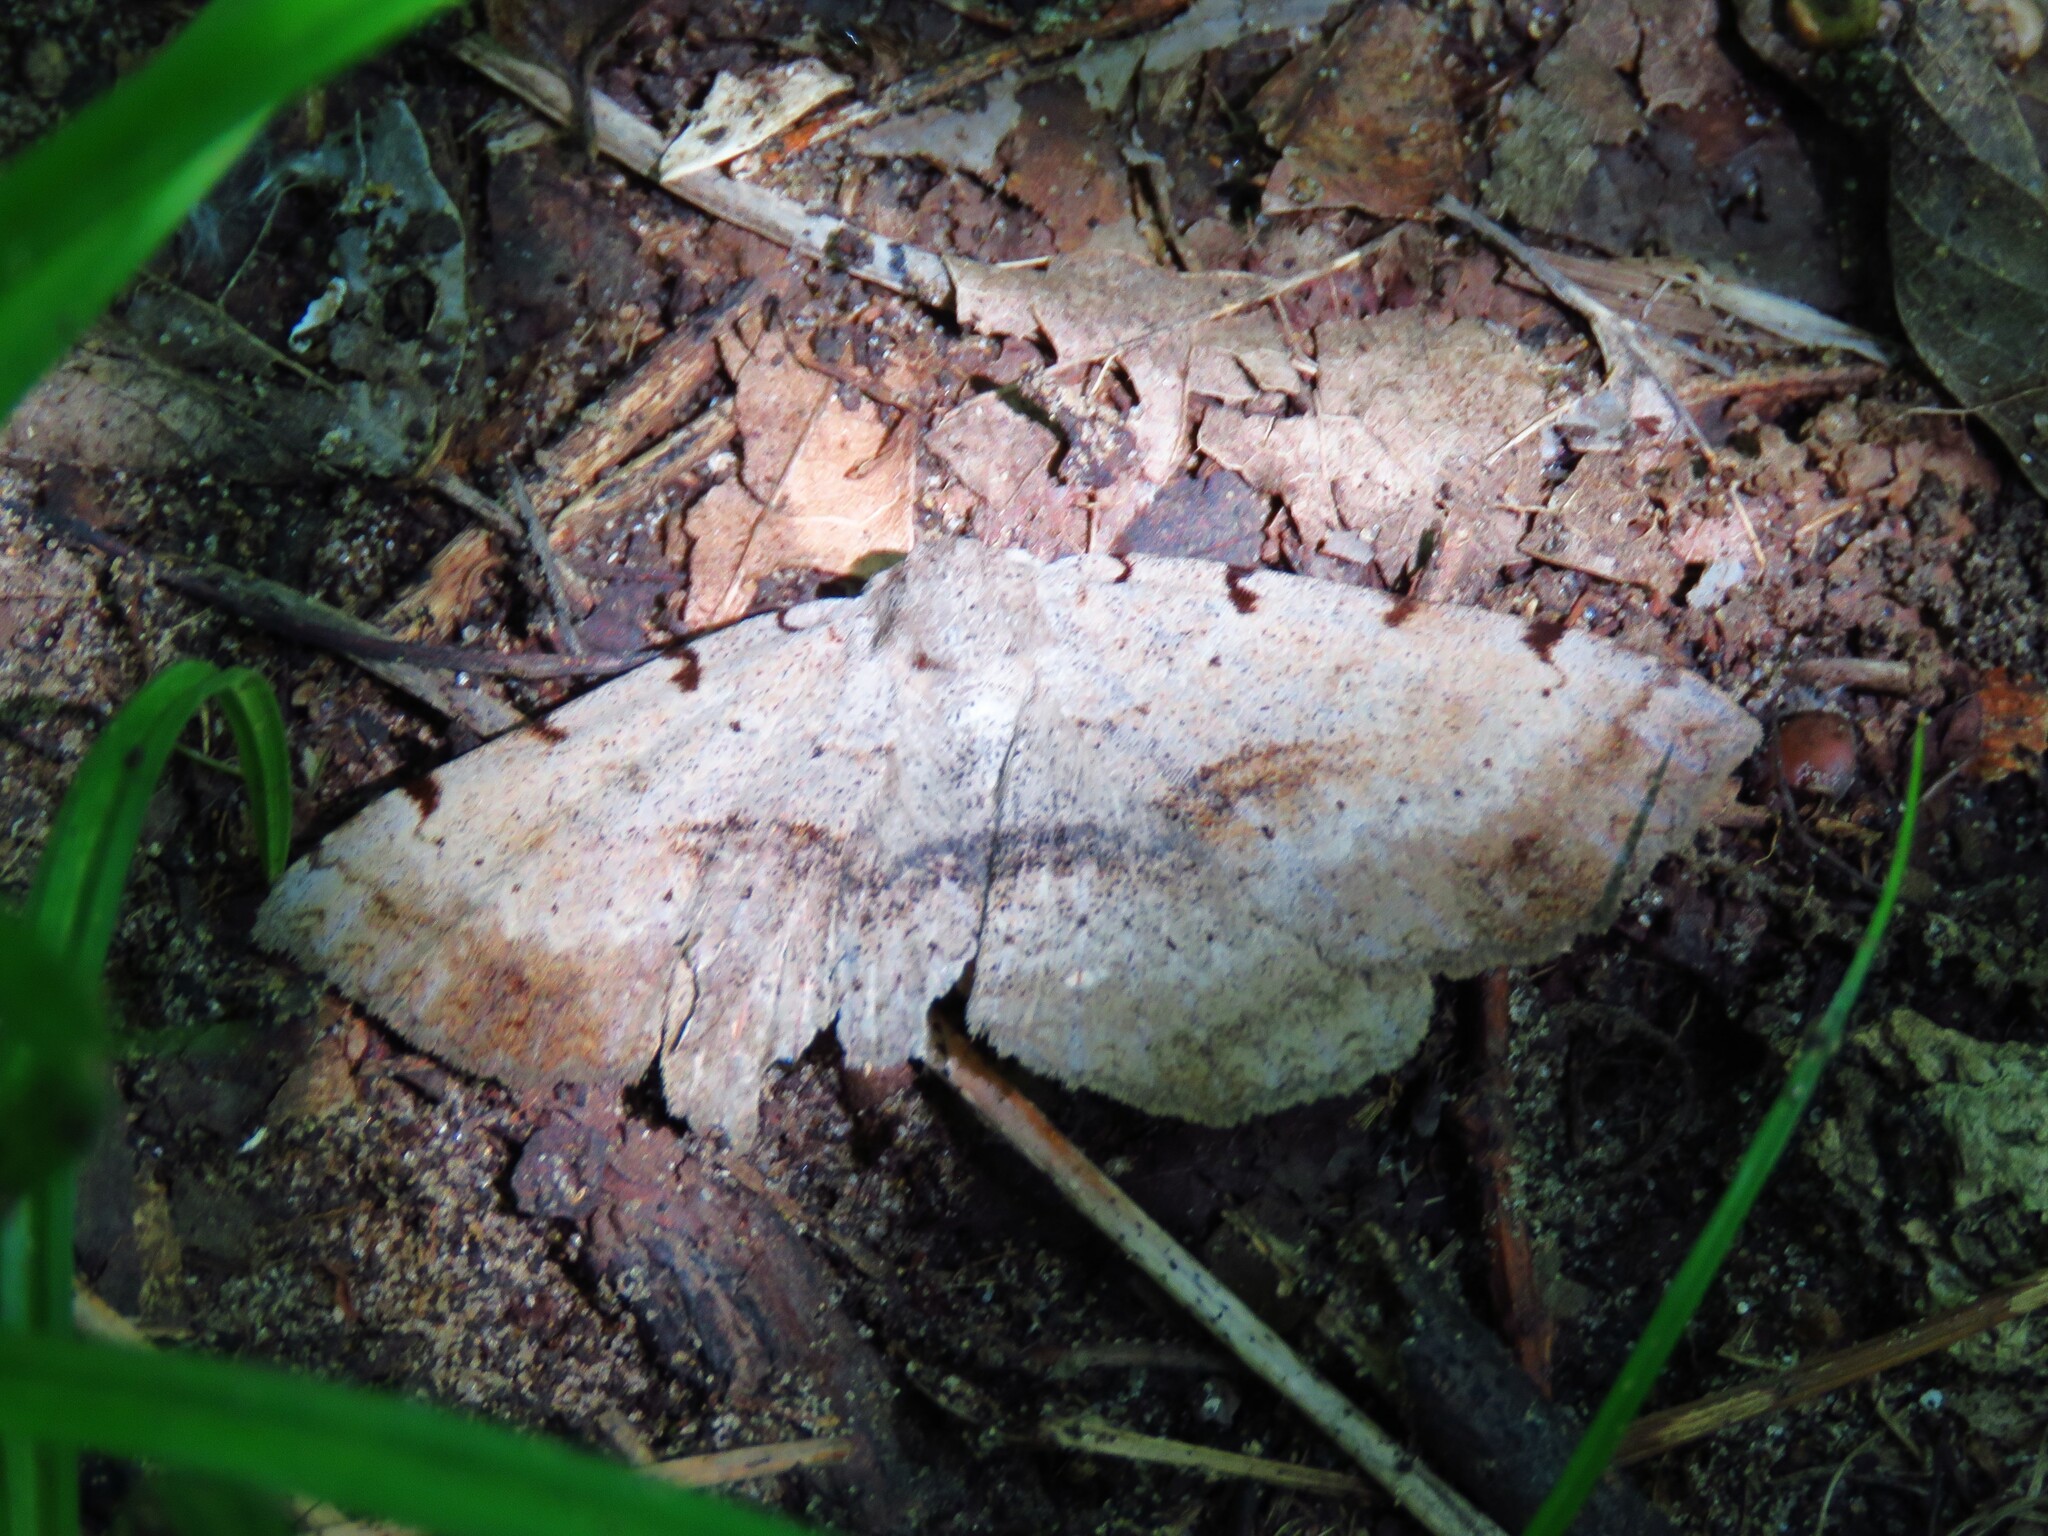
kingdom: Animalia
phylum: Arthropoda
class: Insecta
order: Lepidoptera
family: Erebidae
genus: Spiloloma
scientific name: Spiloloma lunilinea
